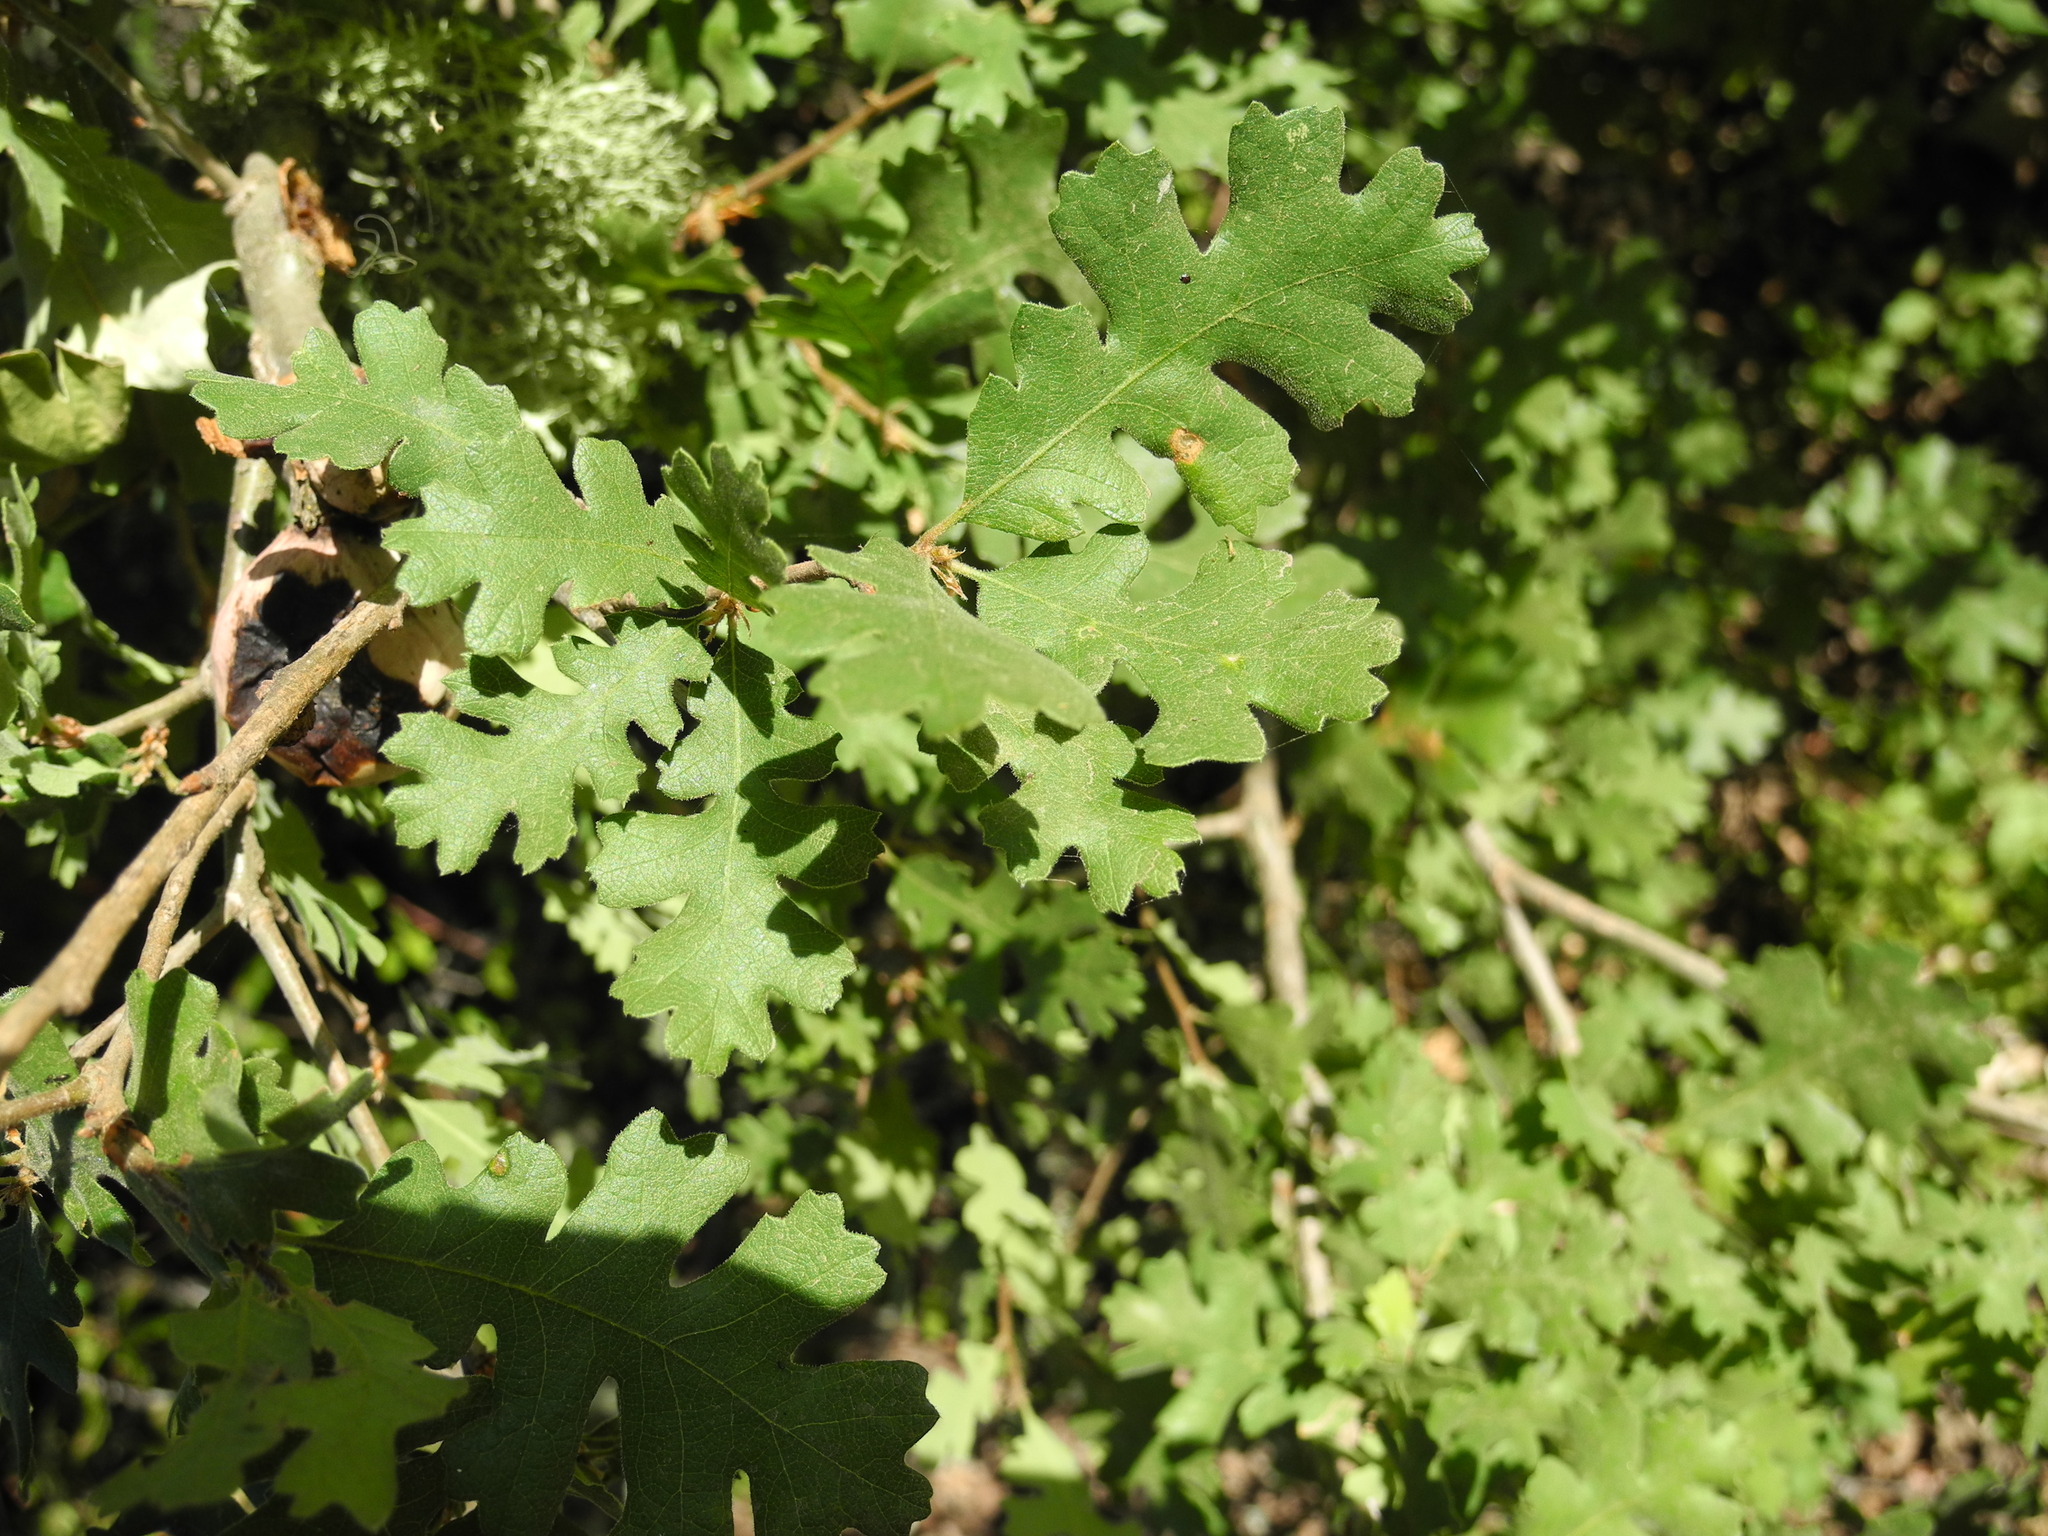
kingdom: Plantae
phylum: Tracheophyta
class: Magnoliopsida
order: Fagales
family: Fagaceae
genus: Quercus
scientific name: Quercus lobata
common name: Valley oak
